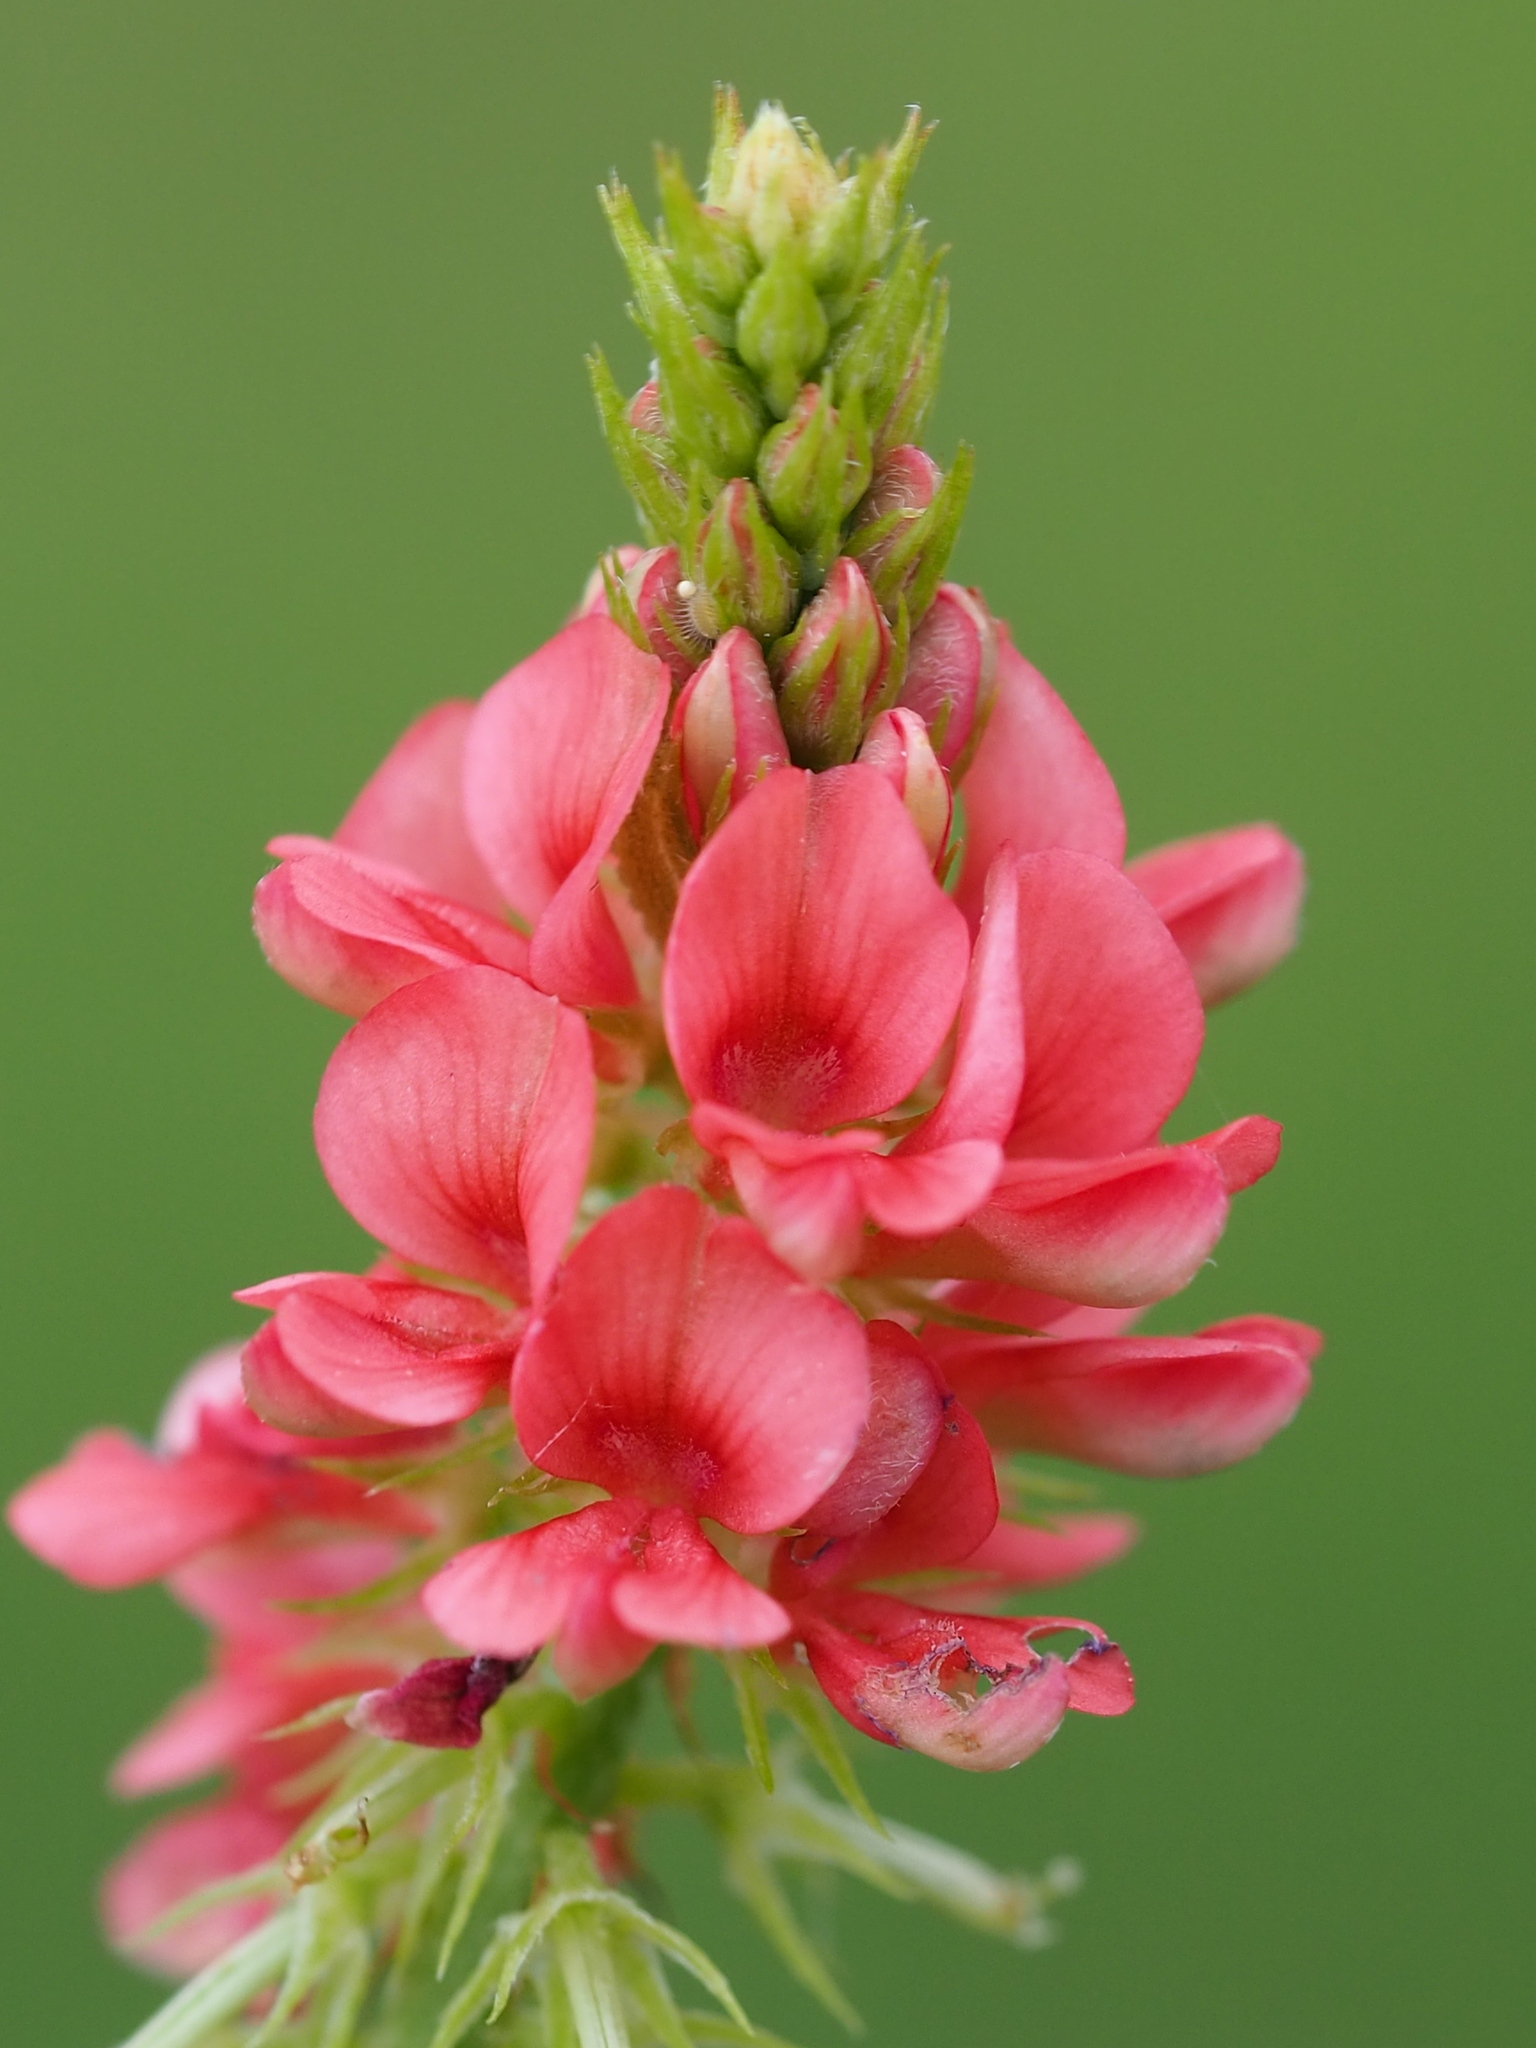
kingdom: Plantae
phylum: Tracheophyta
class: Magnoliopsida
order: Fabales
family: Fabaceae
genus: Indigofera
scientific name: Indigofera spicata
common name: Creeping indigo
